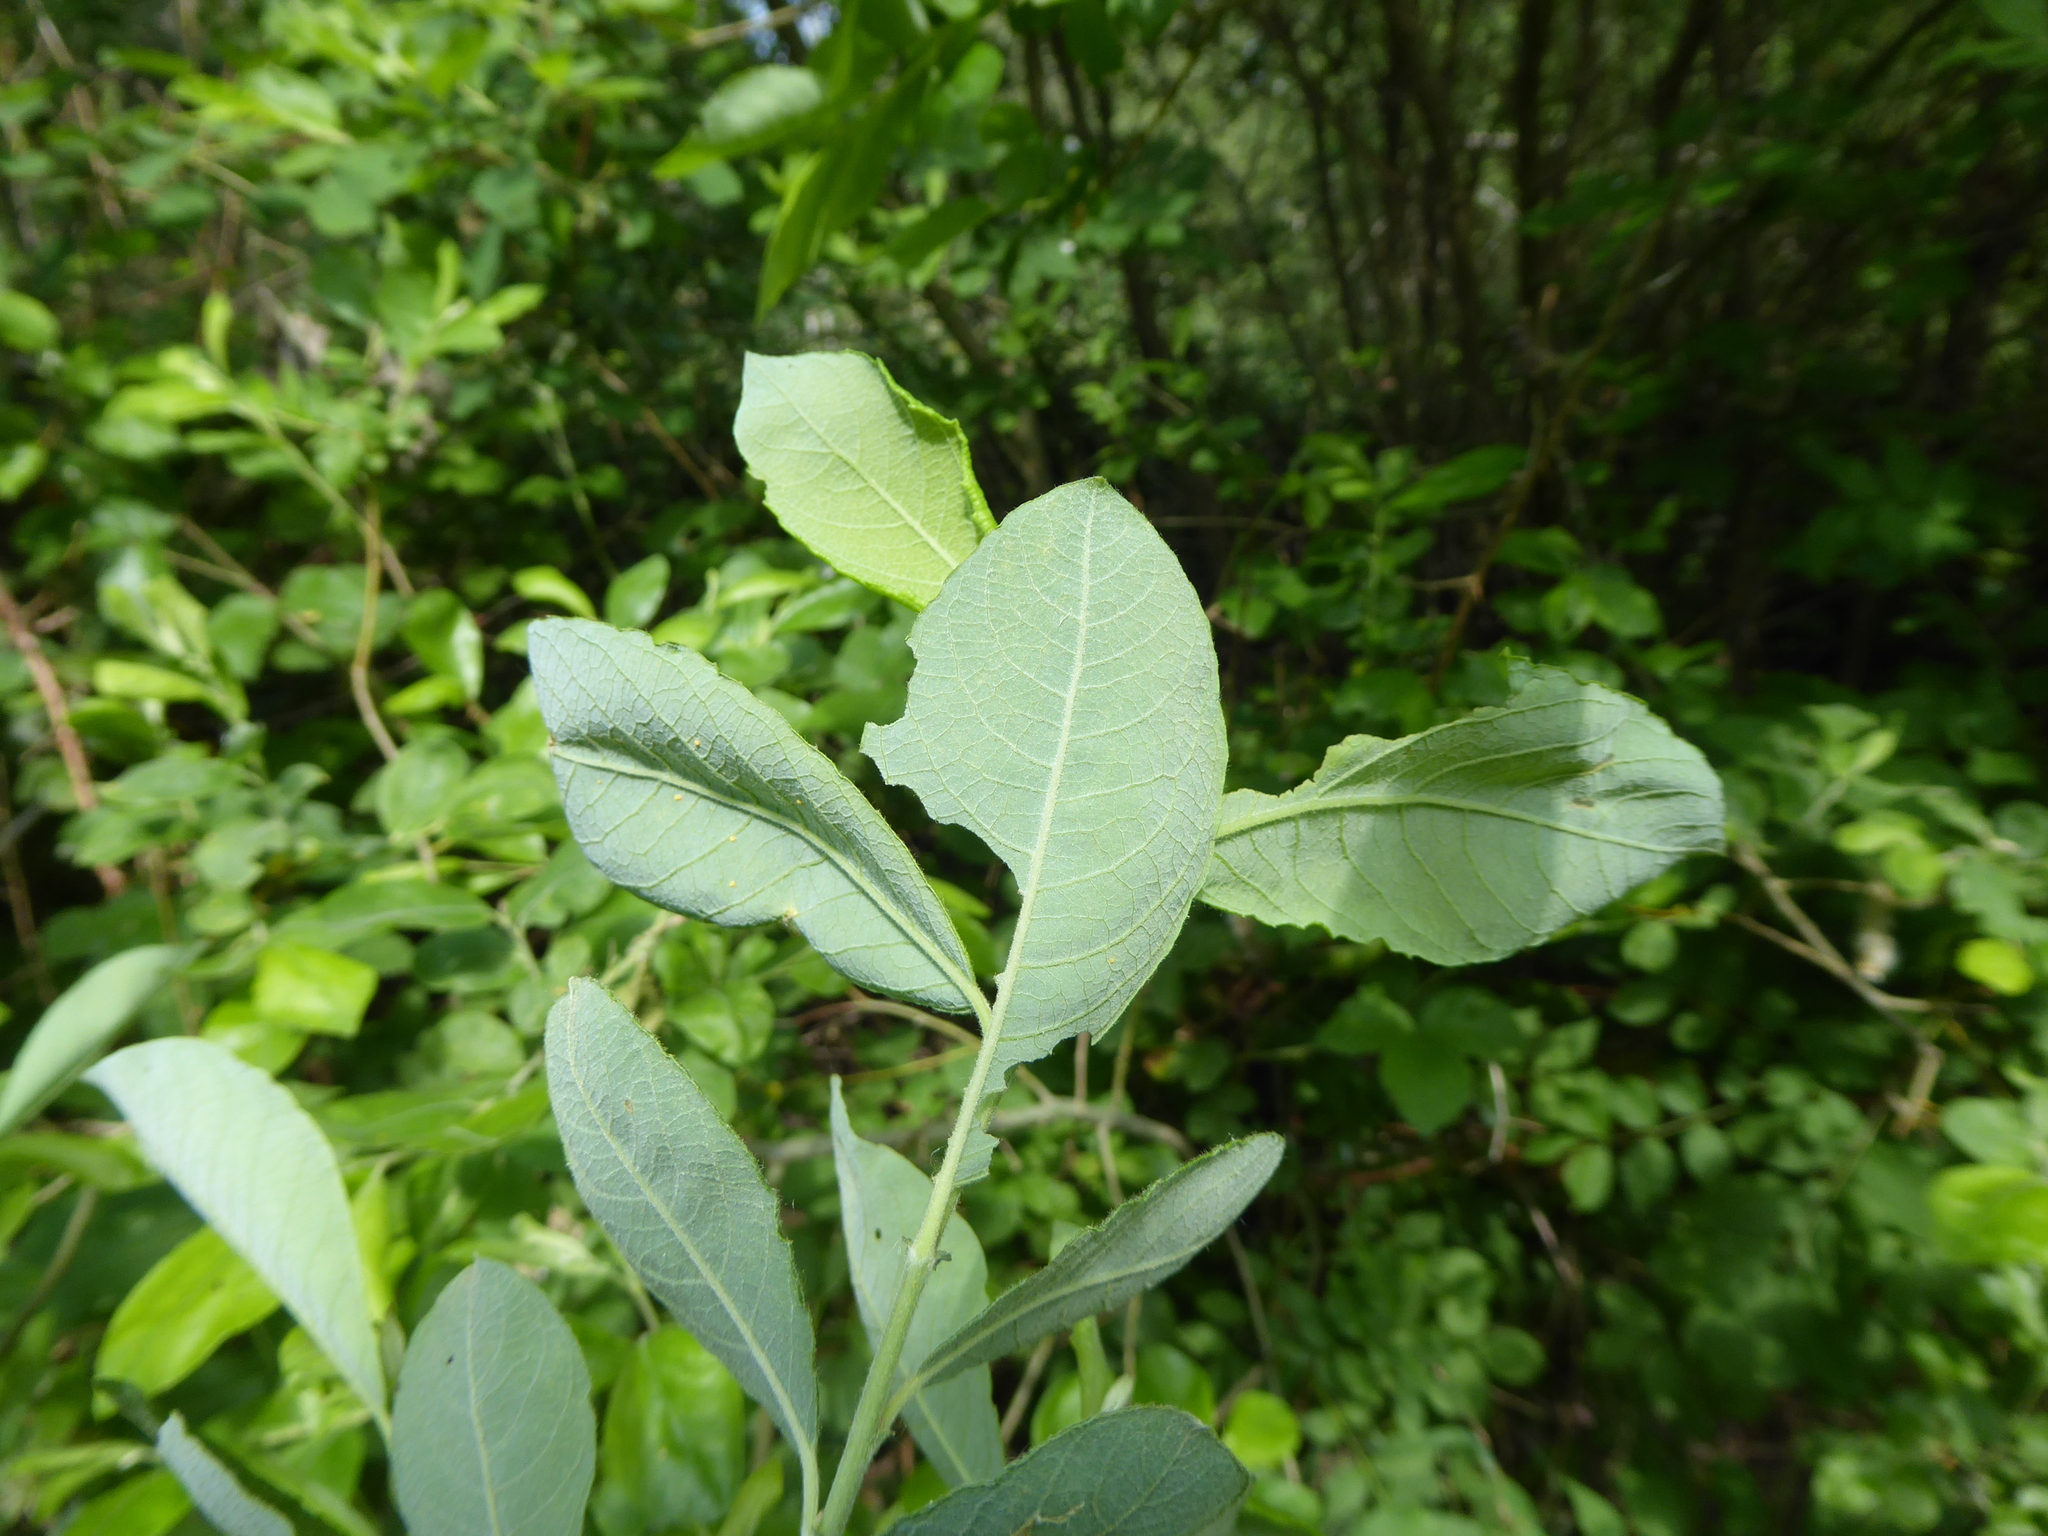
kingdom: Fungi
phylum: Basidiomycota
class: Pucciniomycetes
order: Pucciniales
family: Melampsoraceae
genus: Melampsora
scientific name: Melampsora
